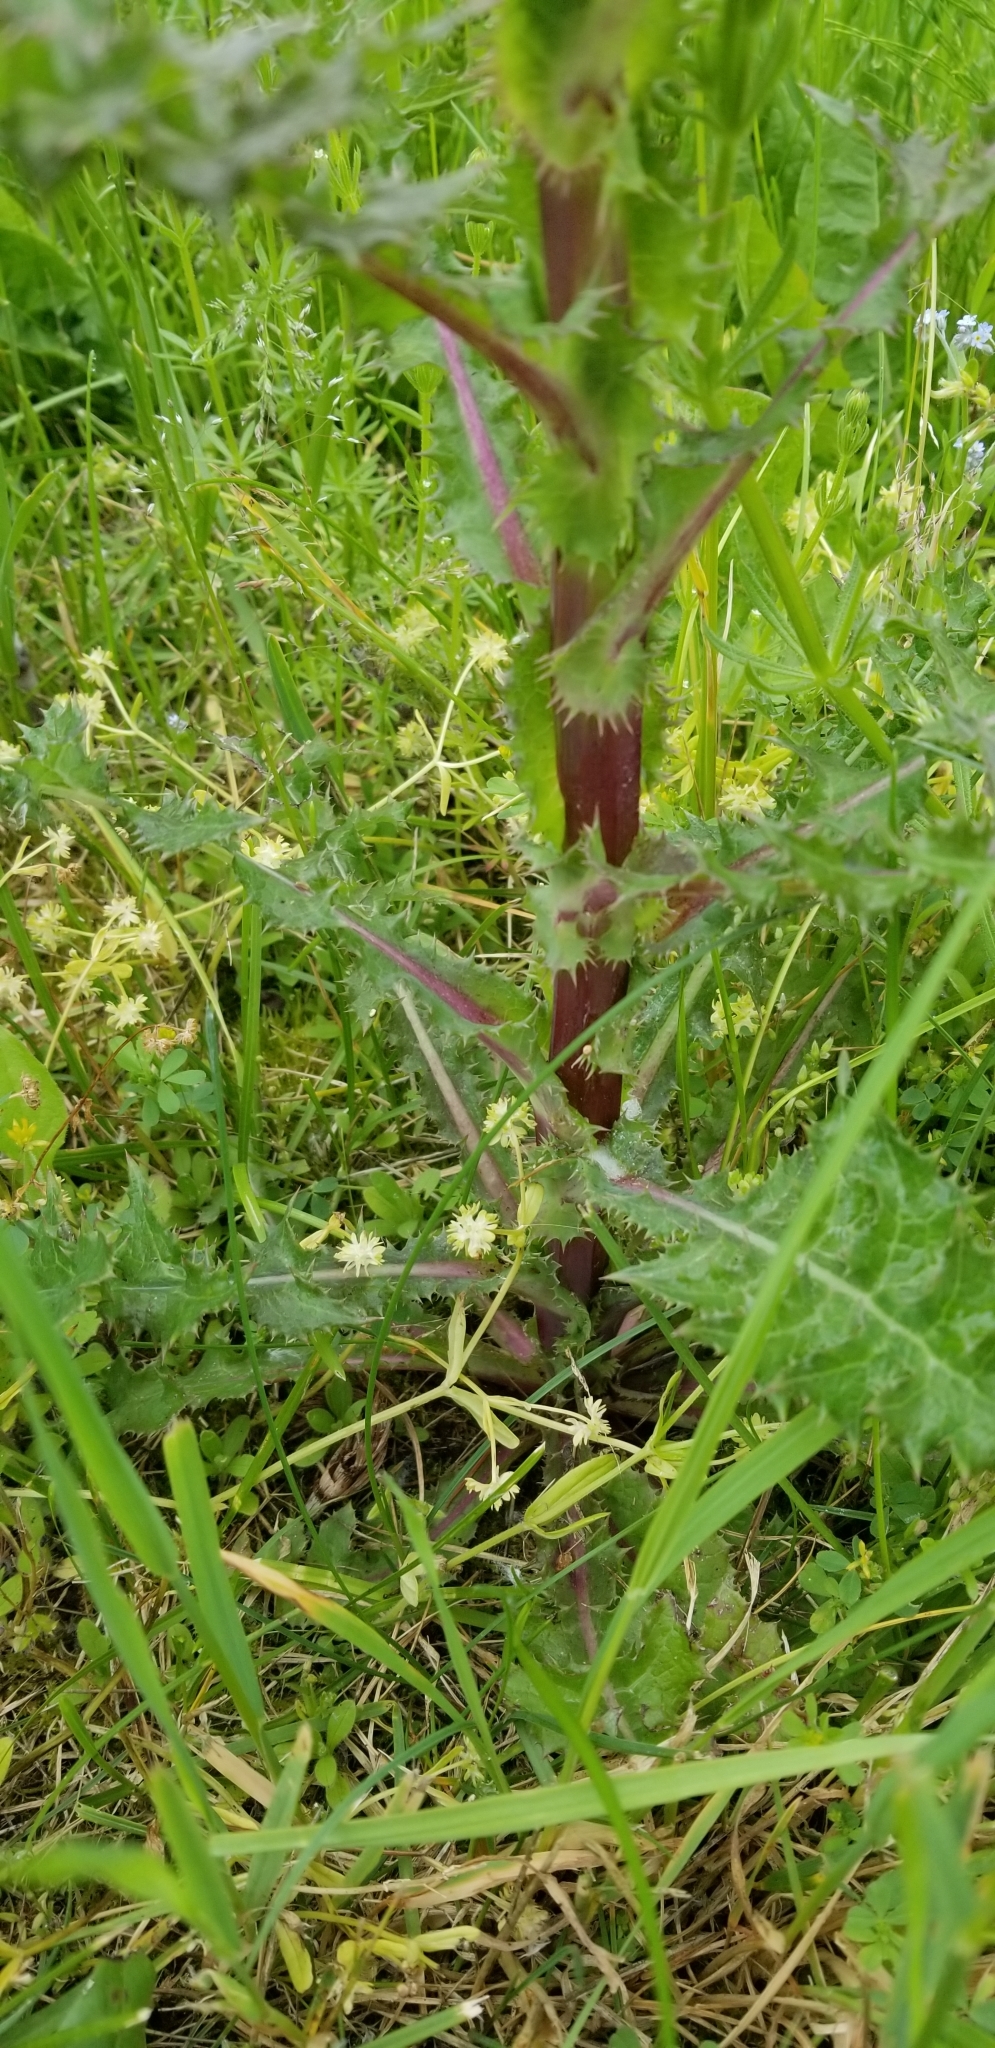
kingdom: Plantae
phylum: Tracheophyta
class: Magnoliopsida
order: Asterales
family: Asteraceae
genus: Sonchus
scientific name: Sonchus asper
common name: Prickly sow-thistle
